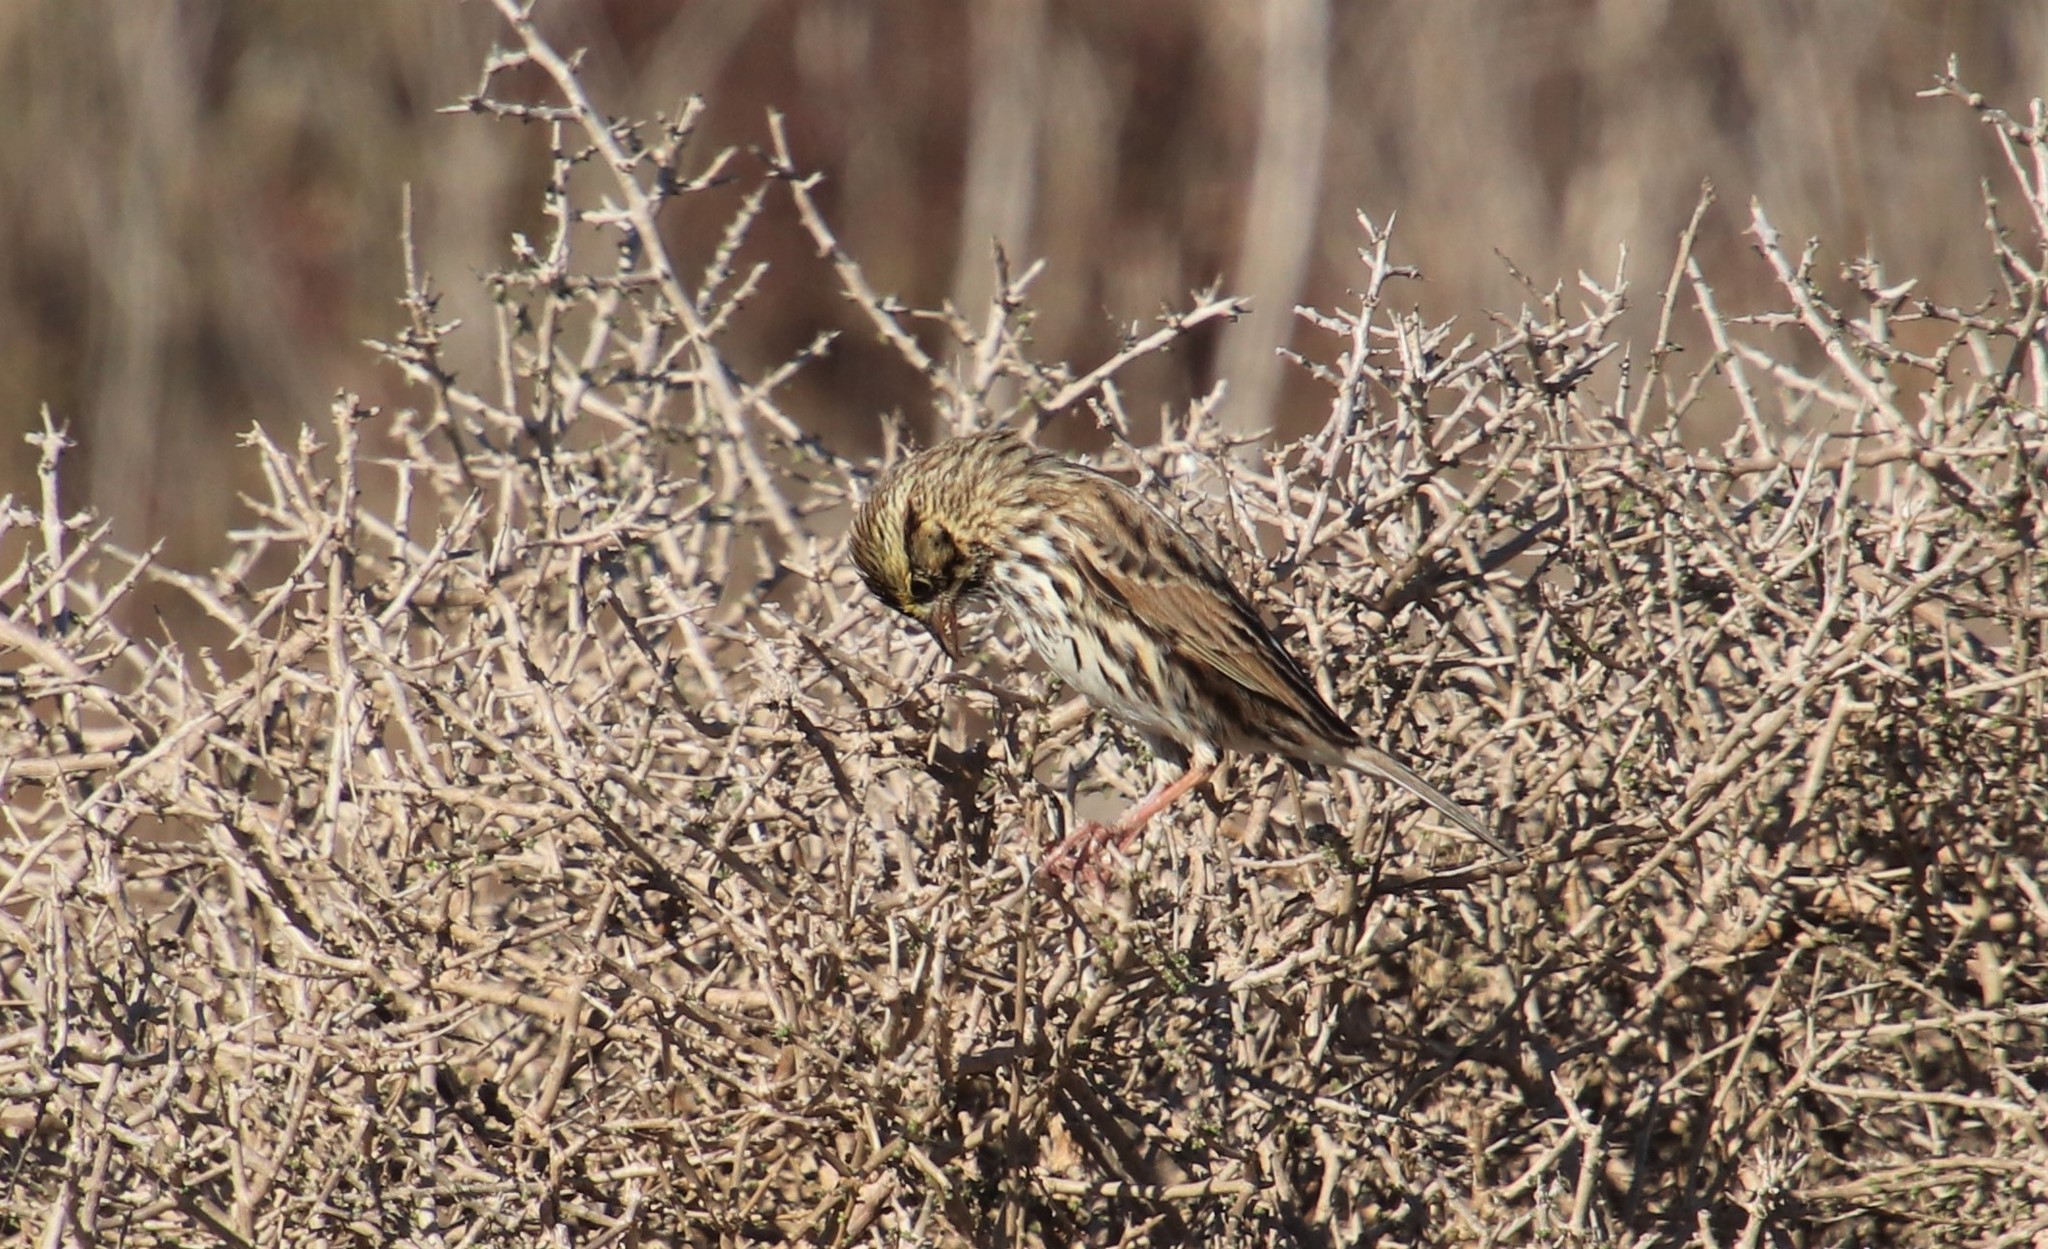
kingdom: Animalia
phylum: Chordata
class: Aves
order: Passeriformes
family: Passerellidae
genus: Passerculus
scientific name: Passerculus sandwichensis
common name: Savannah sparrow
